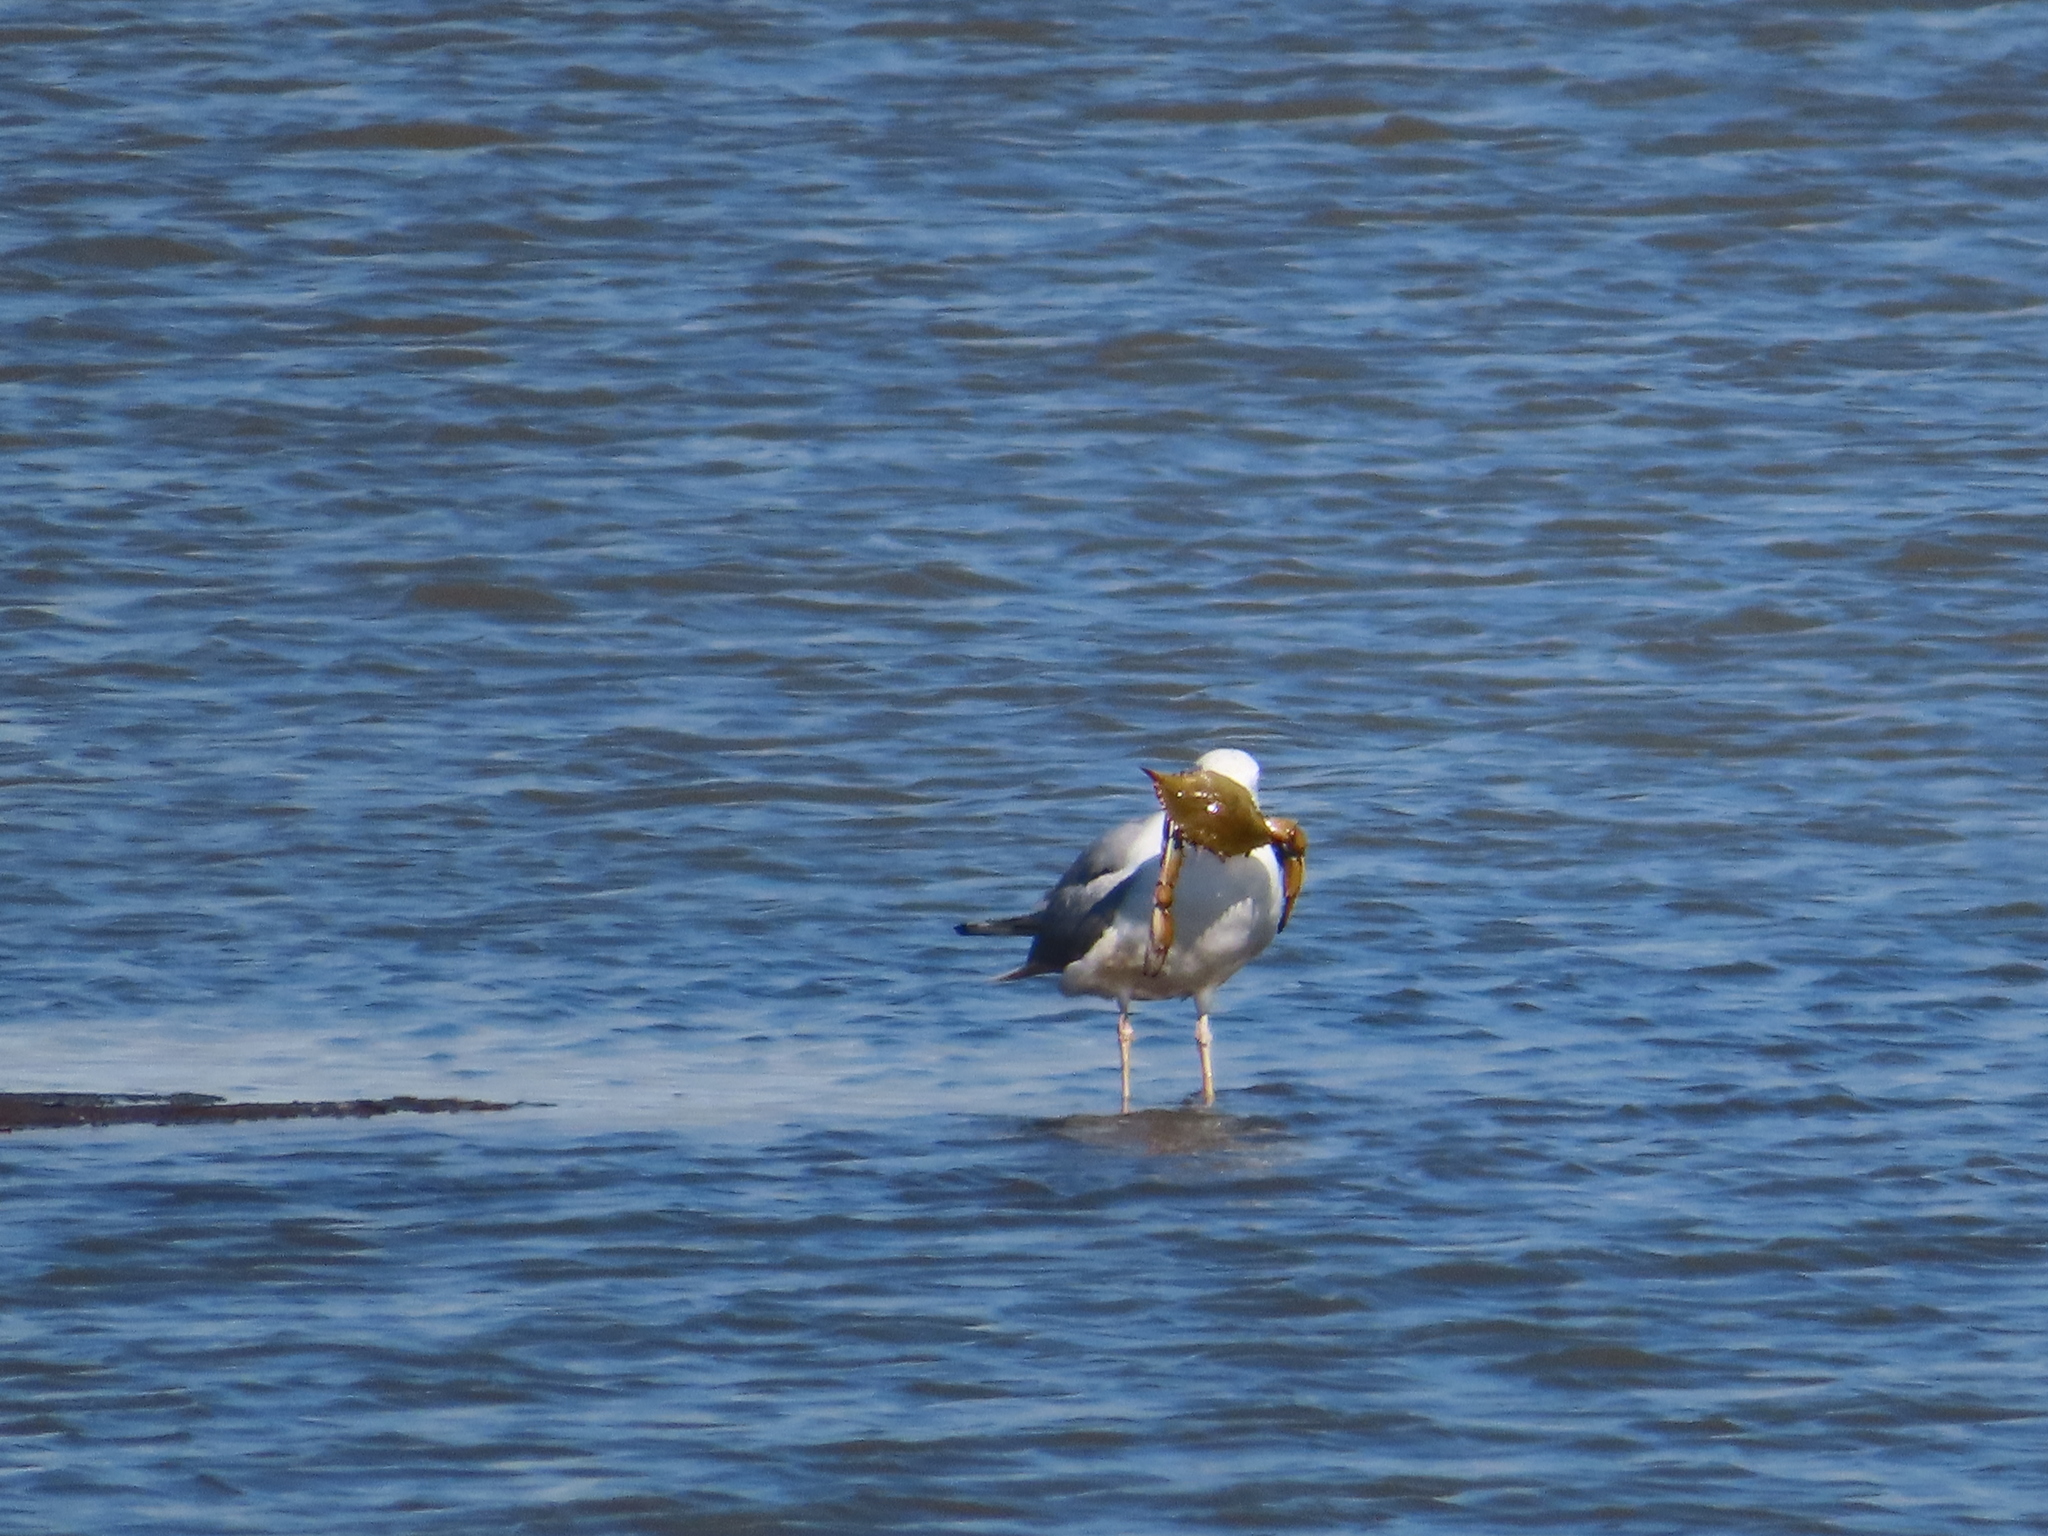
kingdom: Animalia
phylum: Chordata
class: Aves
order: Charadriiformes
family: Laridae
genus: Larus
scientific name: Larus argentatus
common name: Herring gull
